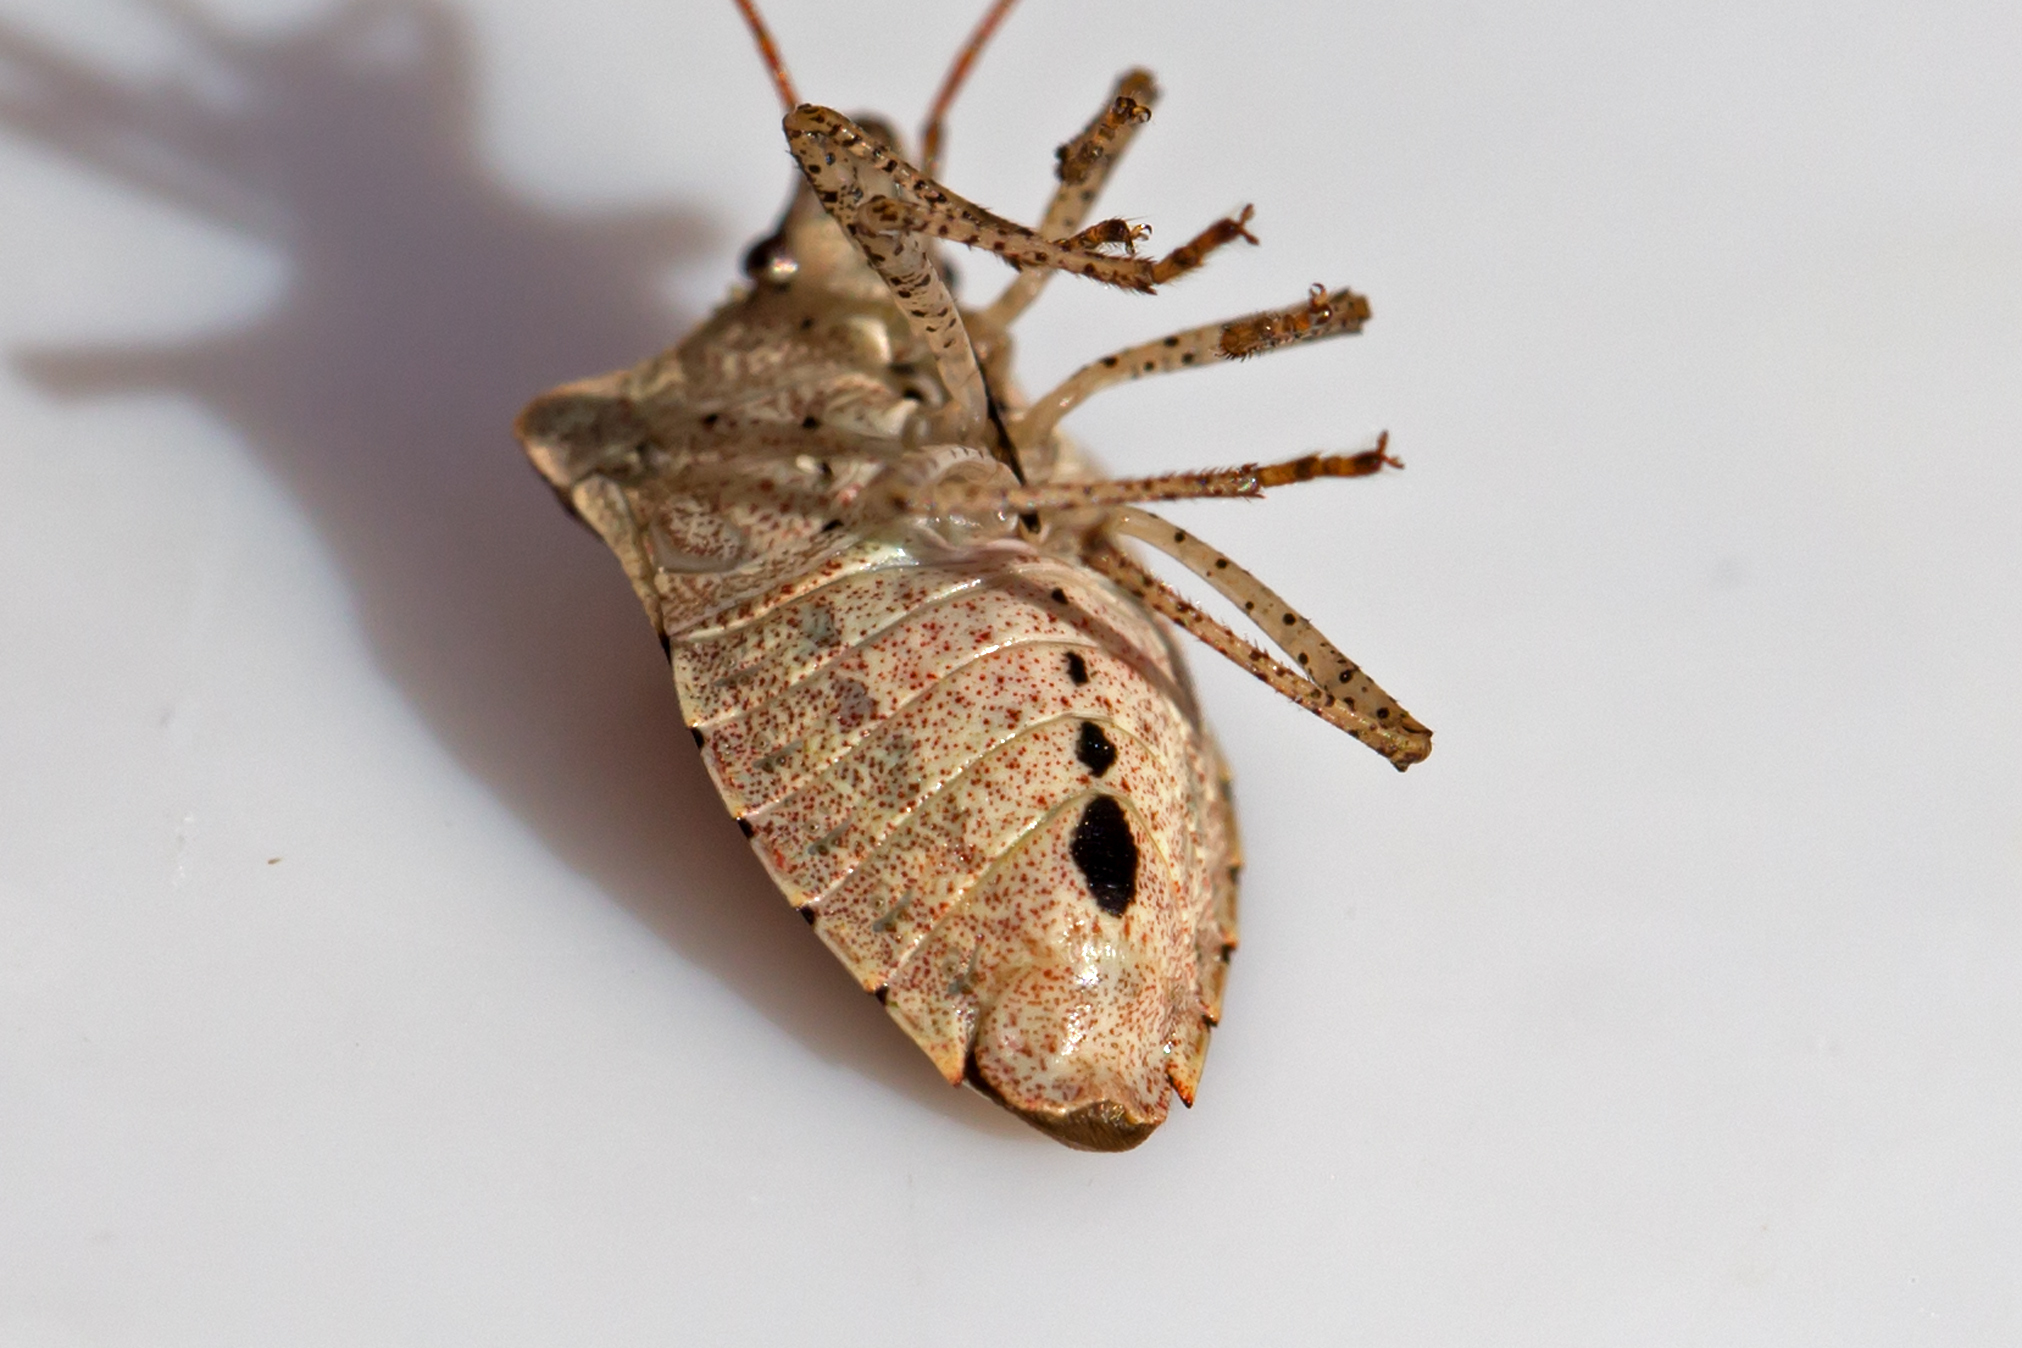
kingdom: Animalia
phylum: Arthropoda
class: Insecta
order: Hemiptera
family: Pentatomidae
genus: Euschistus
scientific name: Euschistus tristigmus
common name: Dusky stink bug
